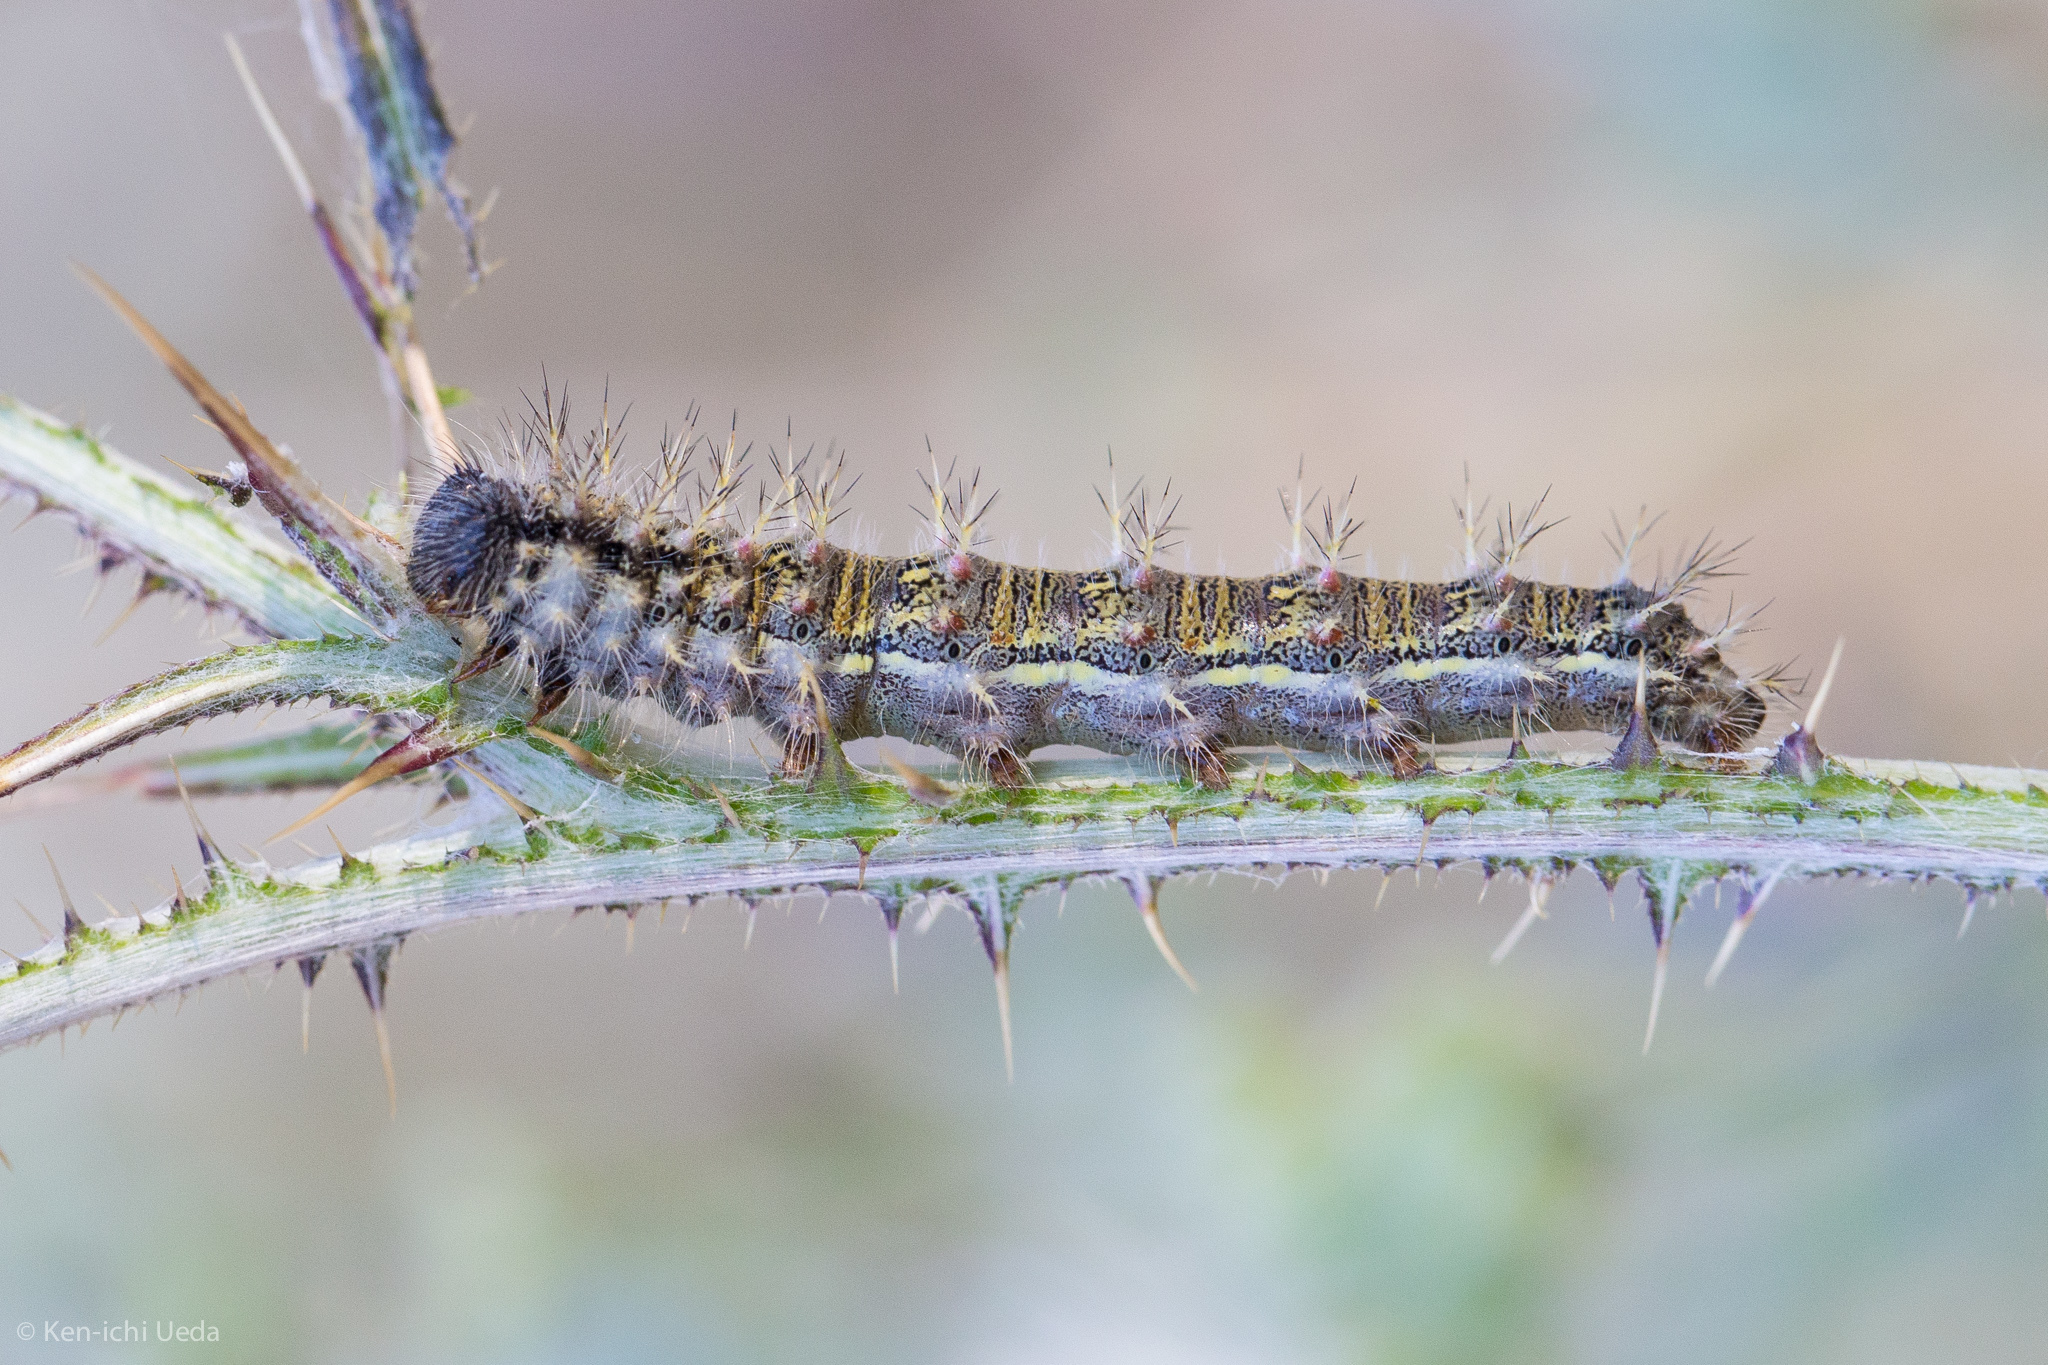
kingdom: Animalia
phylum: Arthropoda
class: Insecta
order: Lepidoptera
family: Nymphalidae
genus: Vanessa
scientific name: Vanessa cardui
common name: Painted lady
